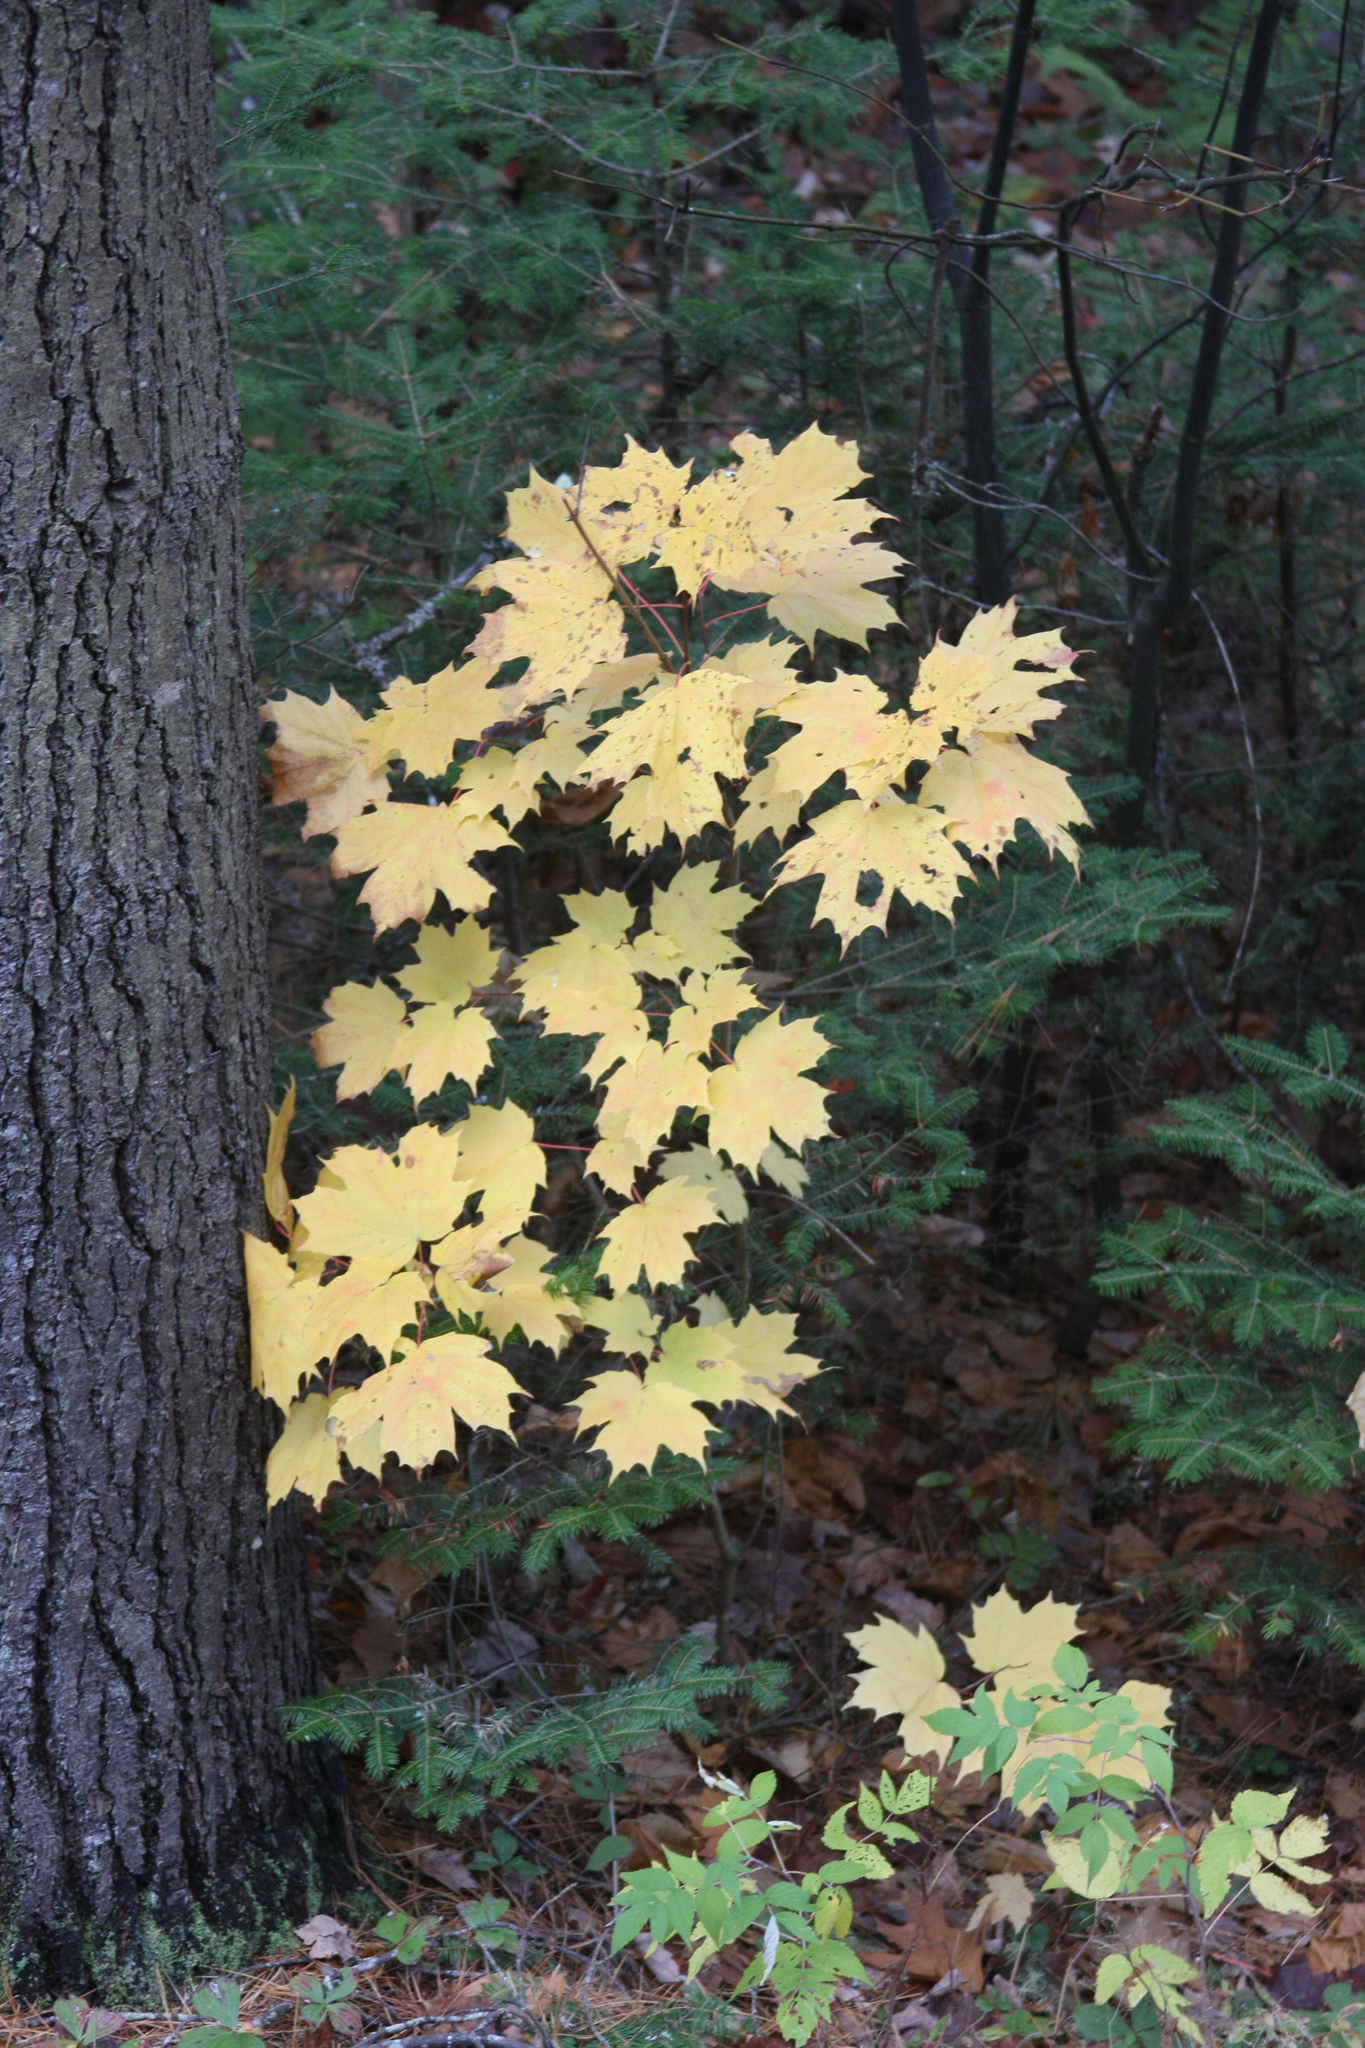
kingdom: Plantae
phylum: Tracheophyta
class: Magnoliopsida
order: Sapindales
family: Sapindaceae
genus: Acer
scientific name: Acer saccharum
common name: Sugar maple
